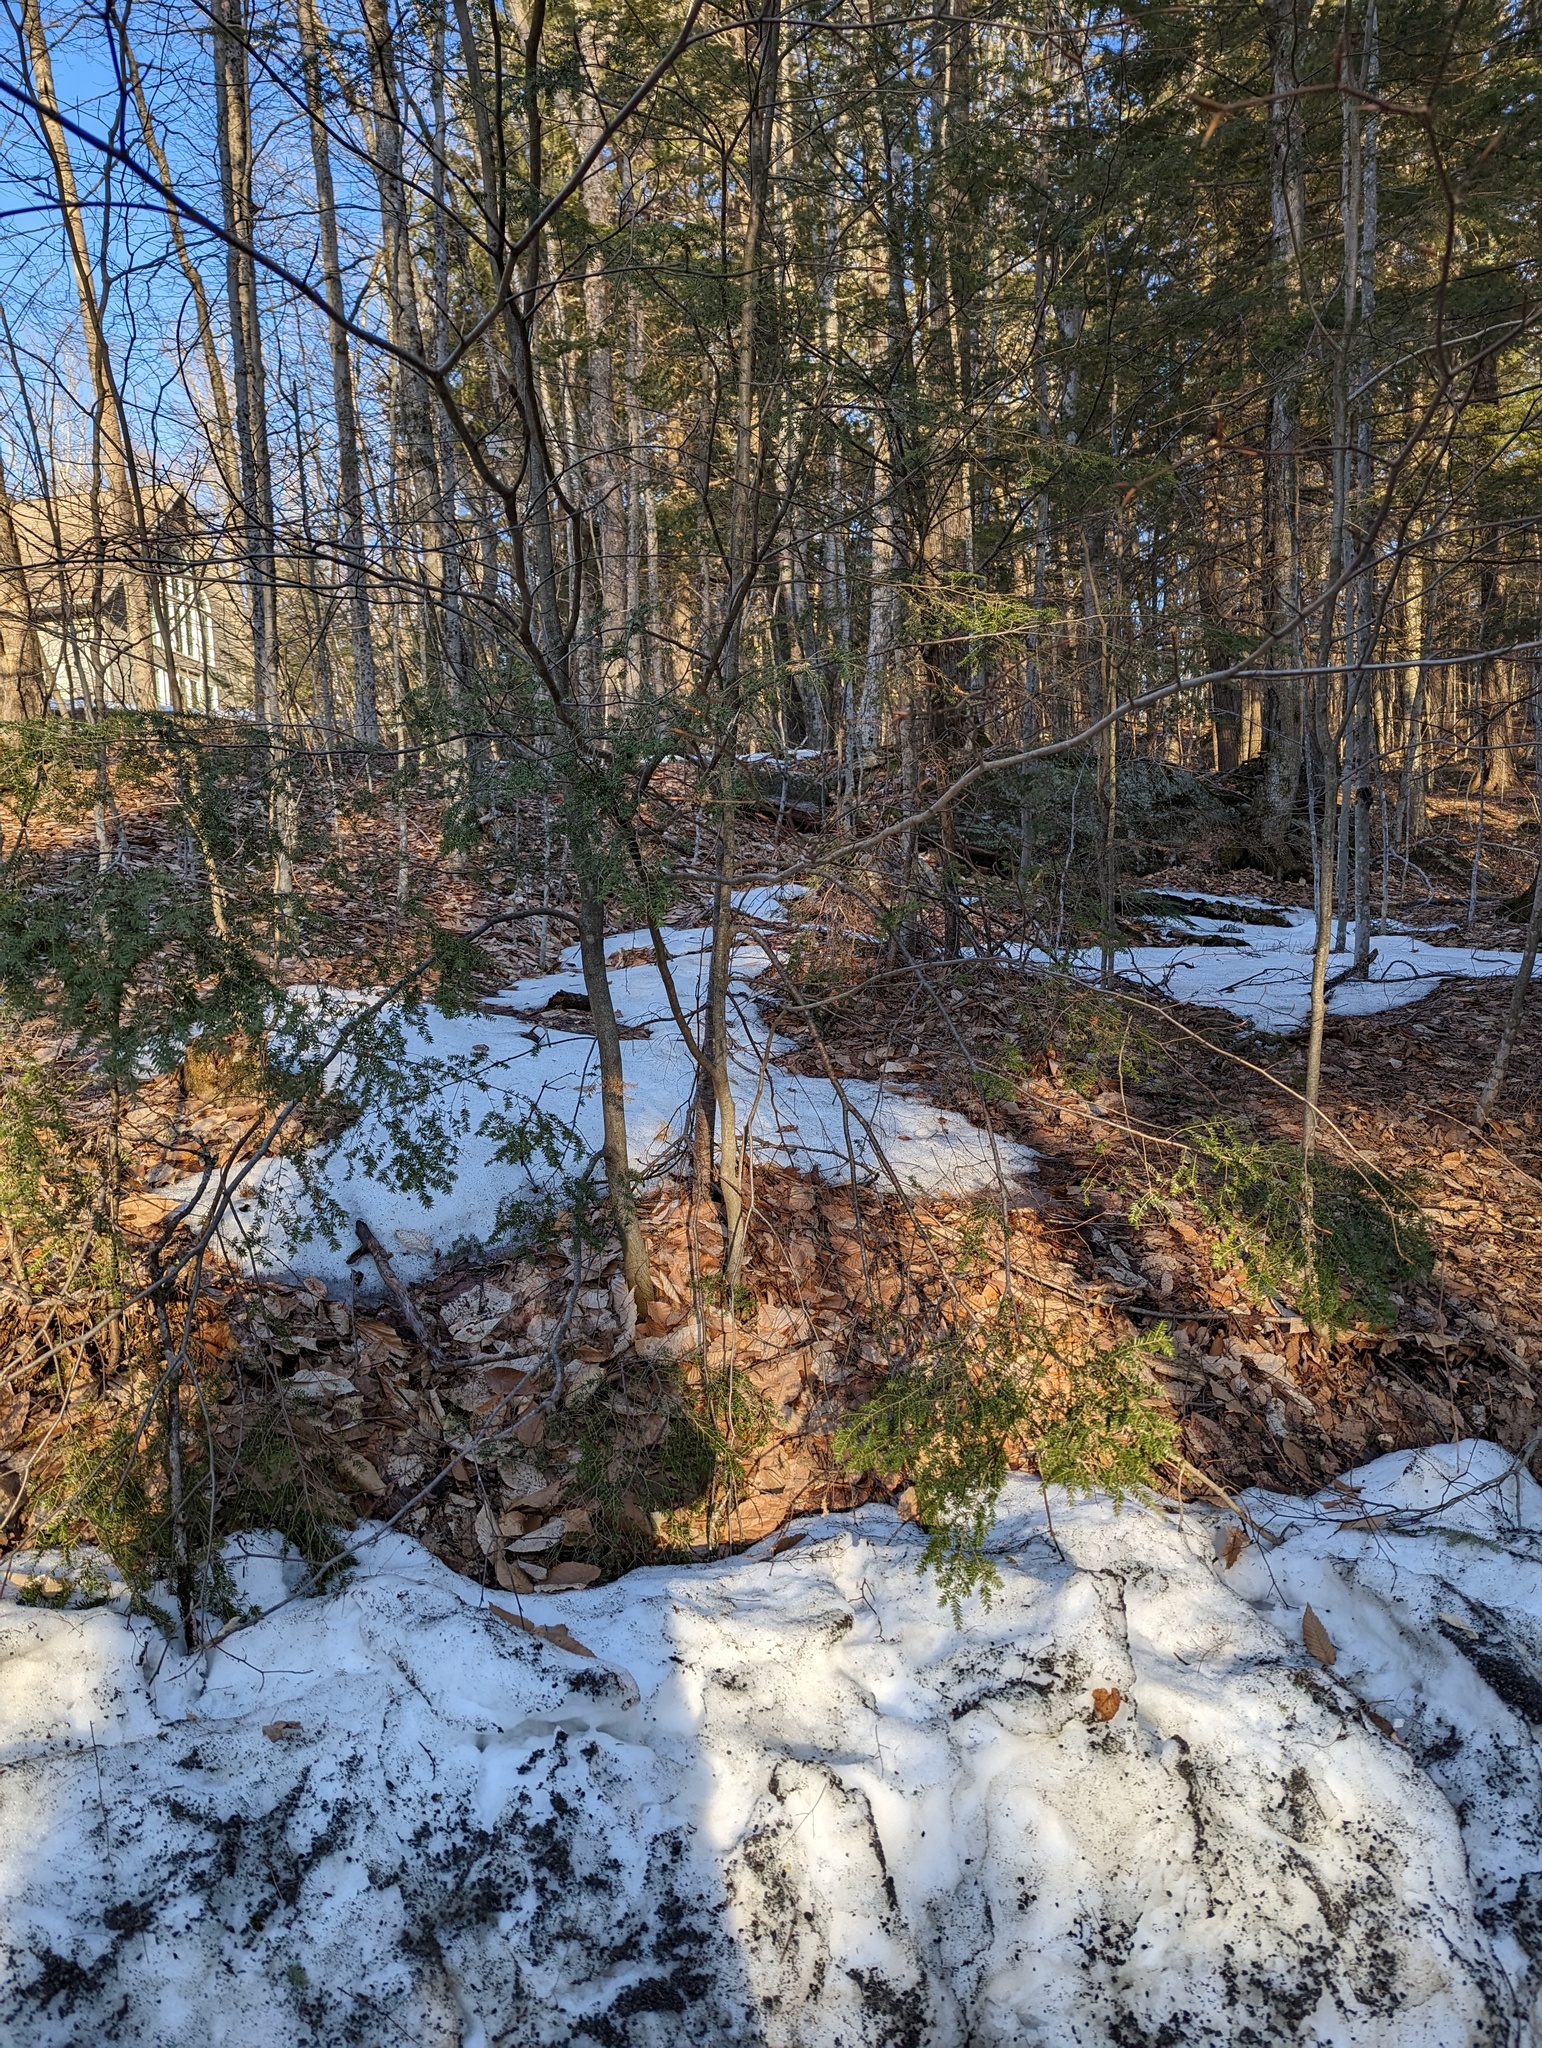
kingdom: Plantae
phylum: Tracheophyta
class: Pinopsida
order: Pinales
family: Pinaceae
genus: Tsuga
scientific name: Tsuga canadensis
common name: Eastern hemlock
